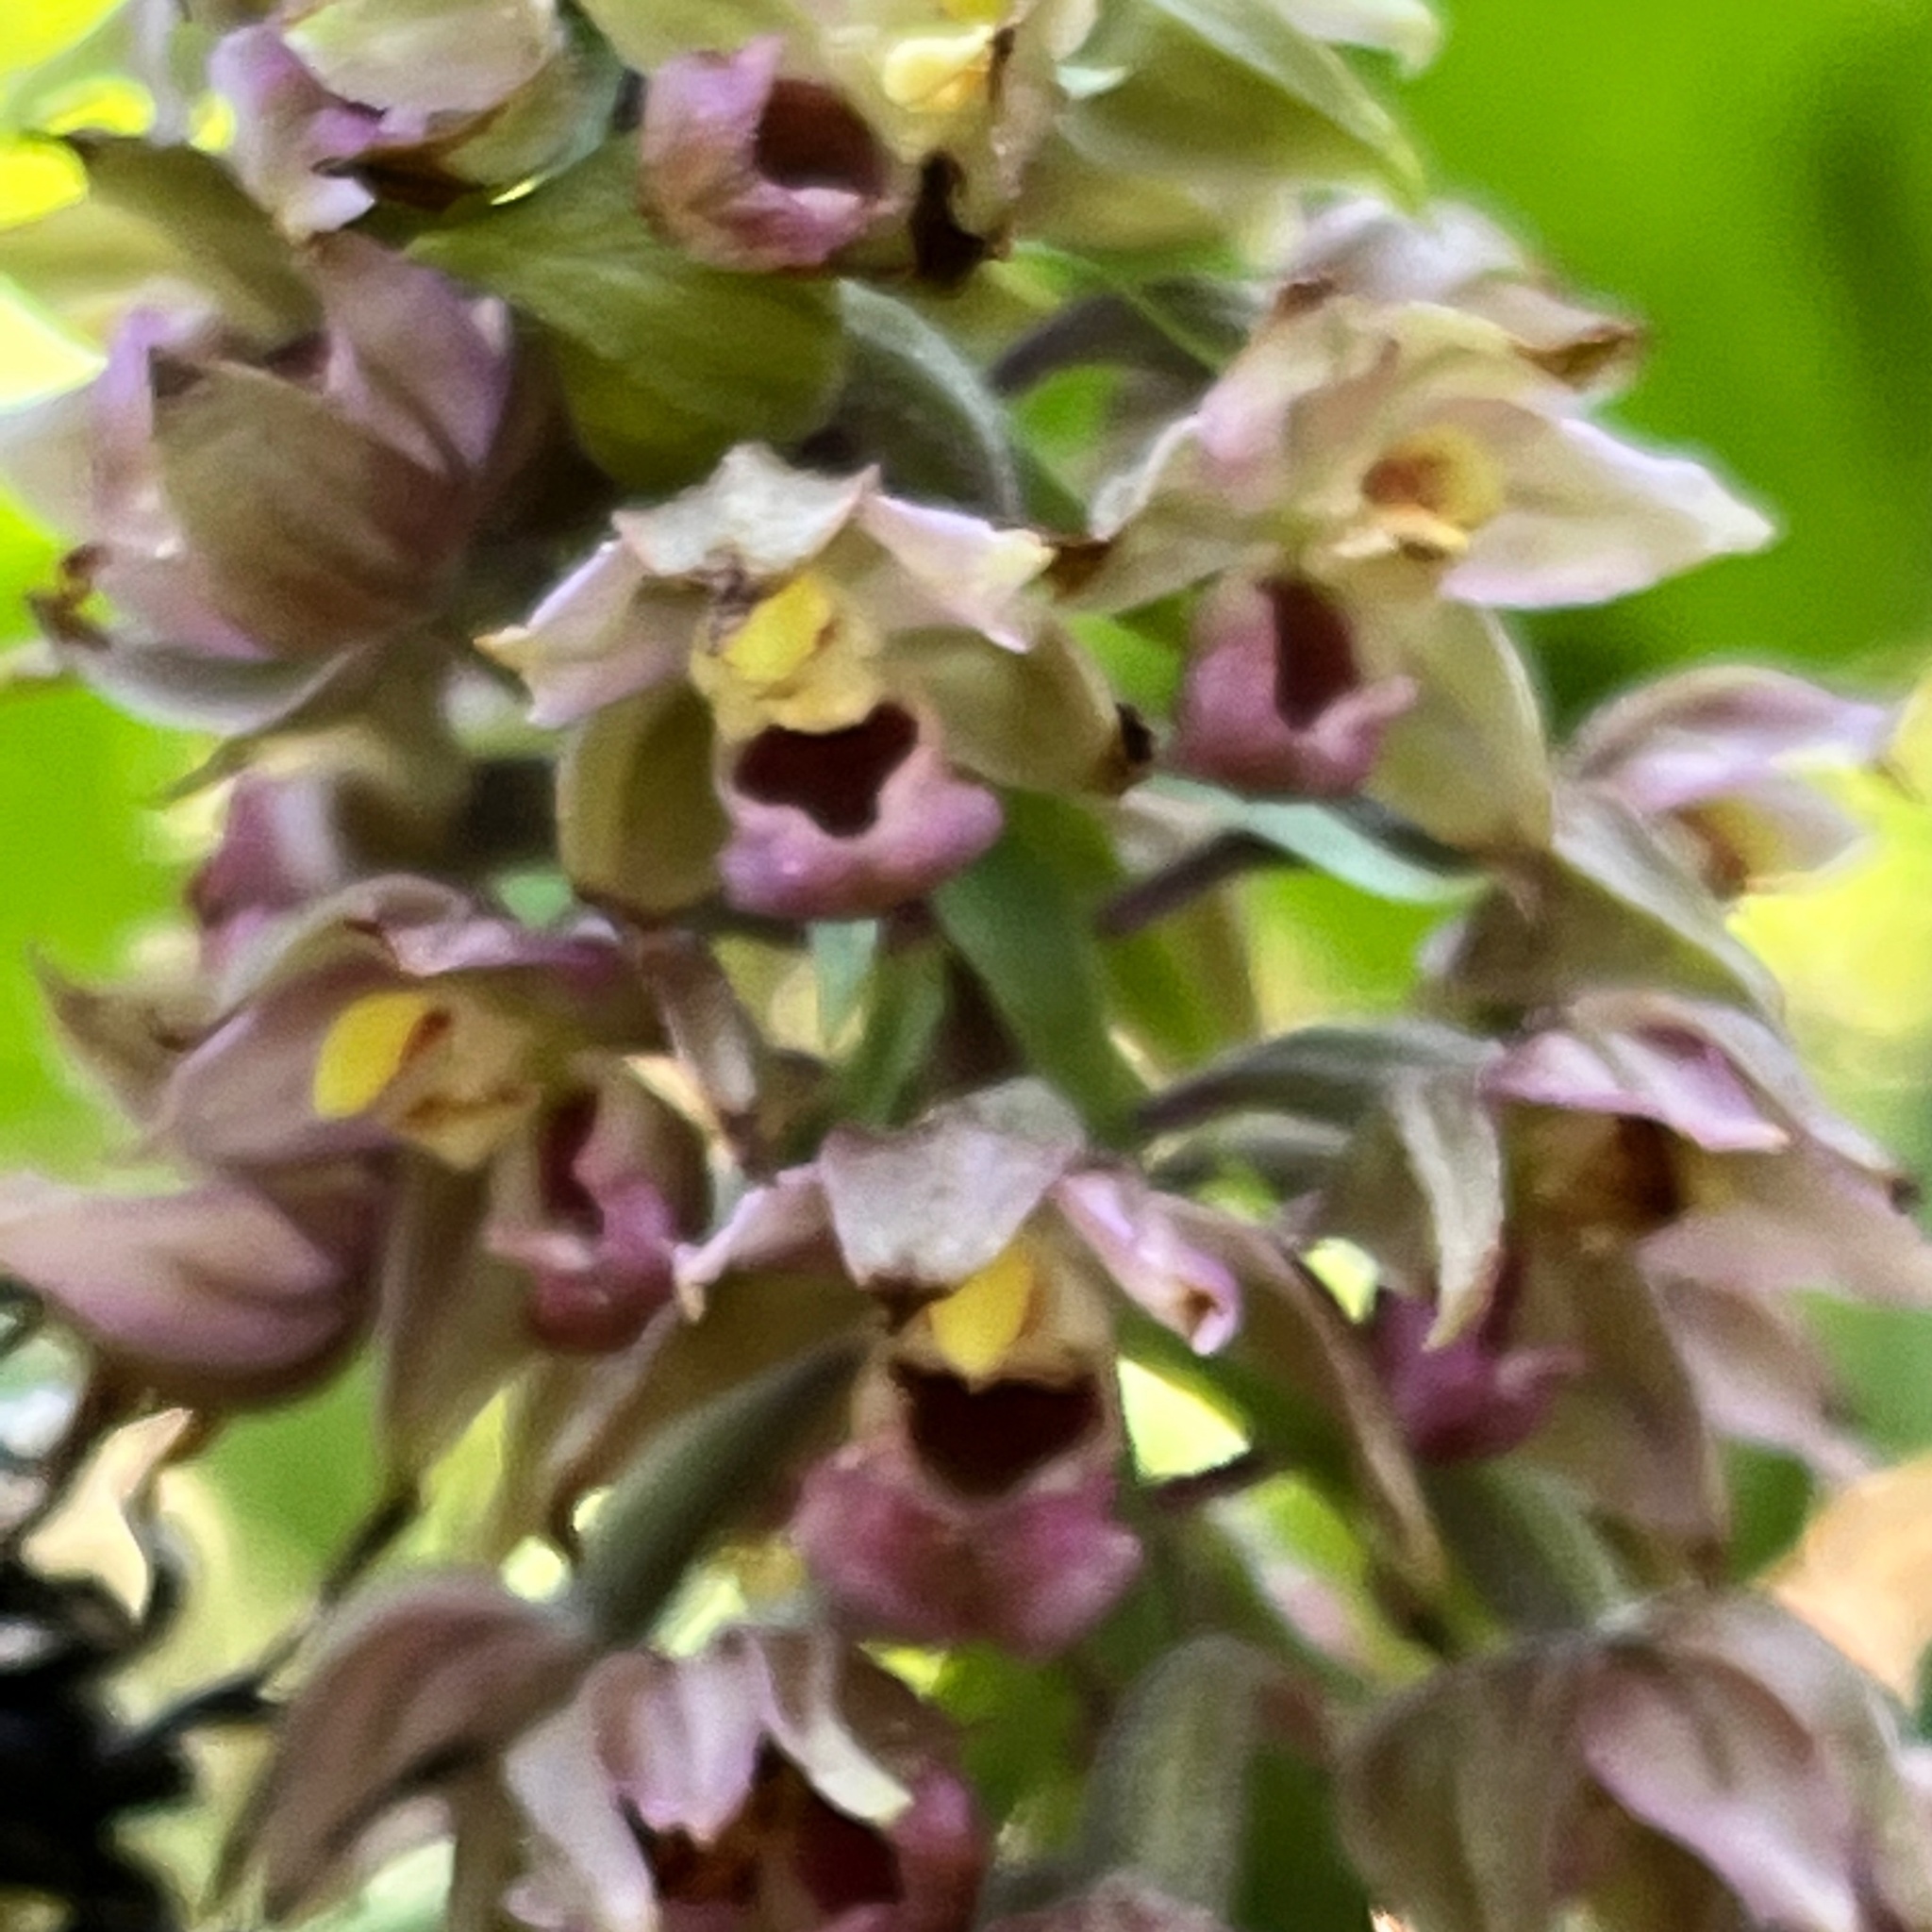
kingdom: Plantae
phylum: Tracheophyta
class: Liliopsida
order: Asparagales
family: Orchidaceae
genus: Epipactis
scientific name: Epipactis helleborine
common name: Broad-leaved helleborine
